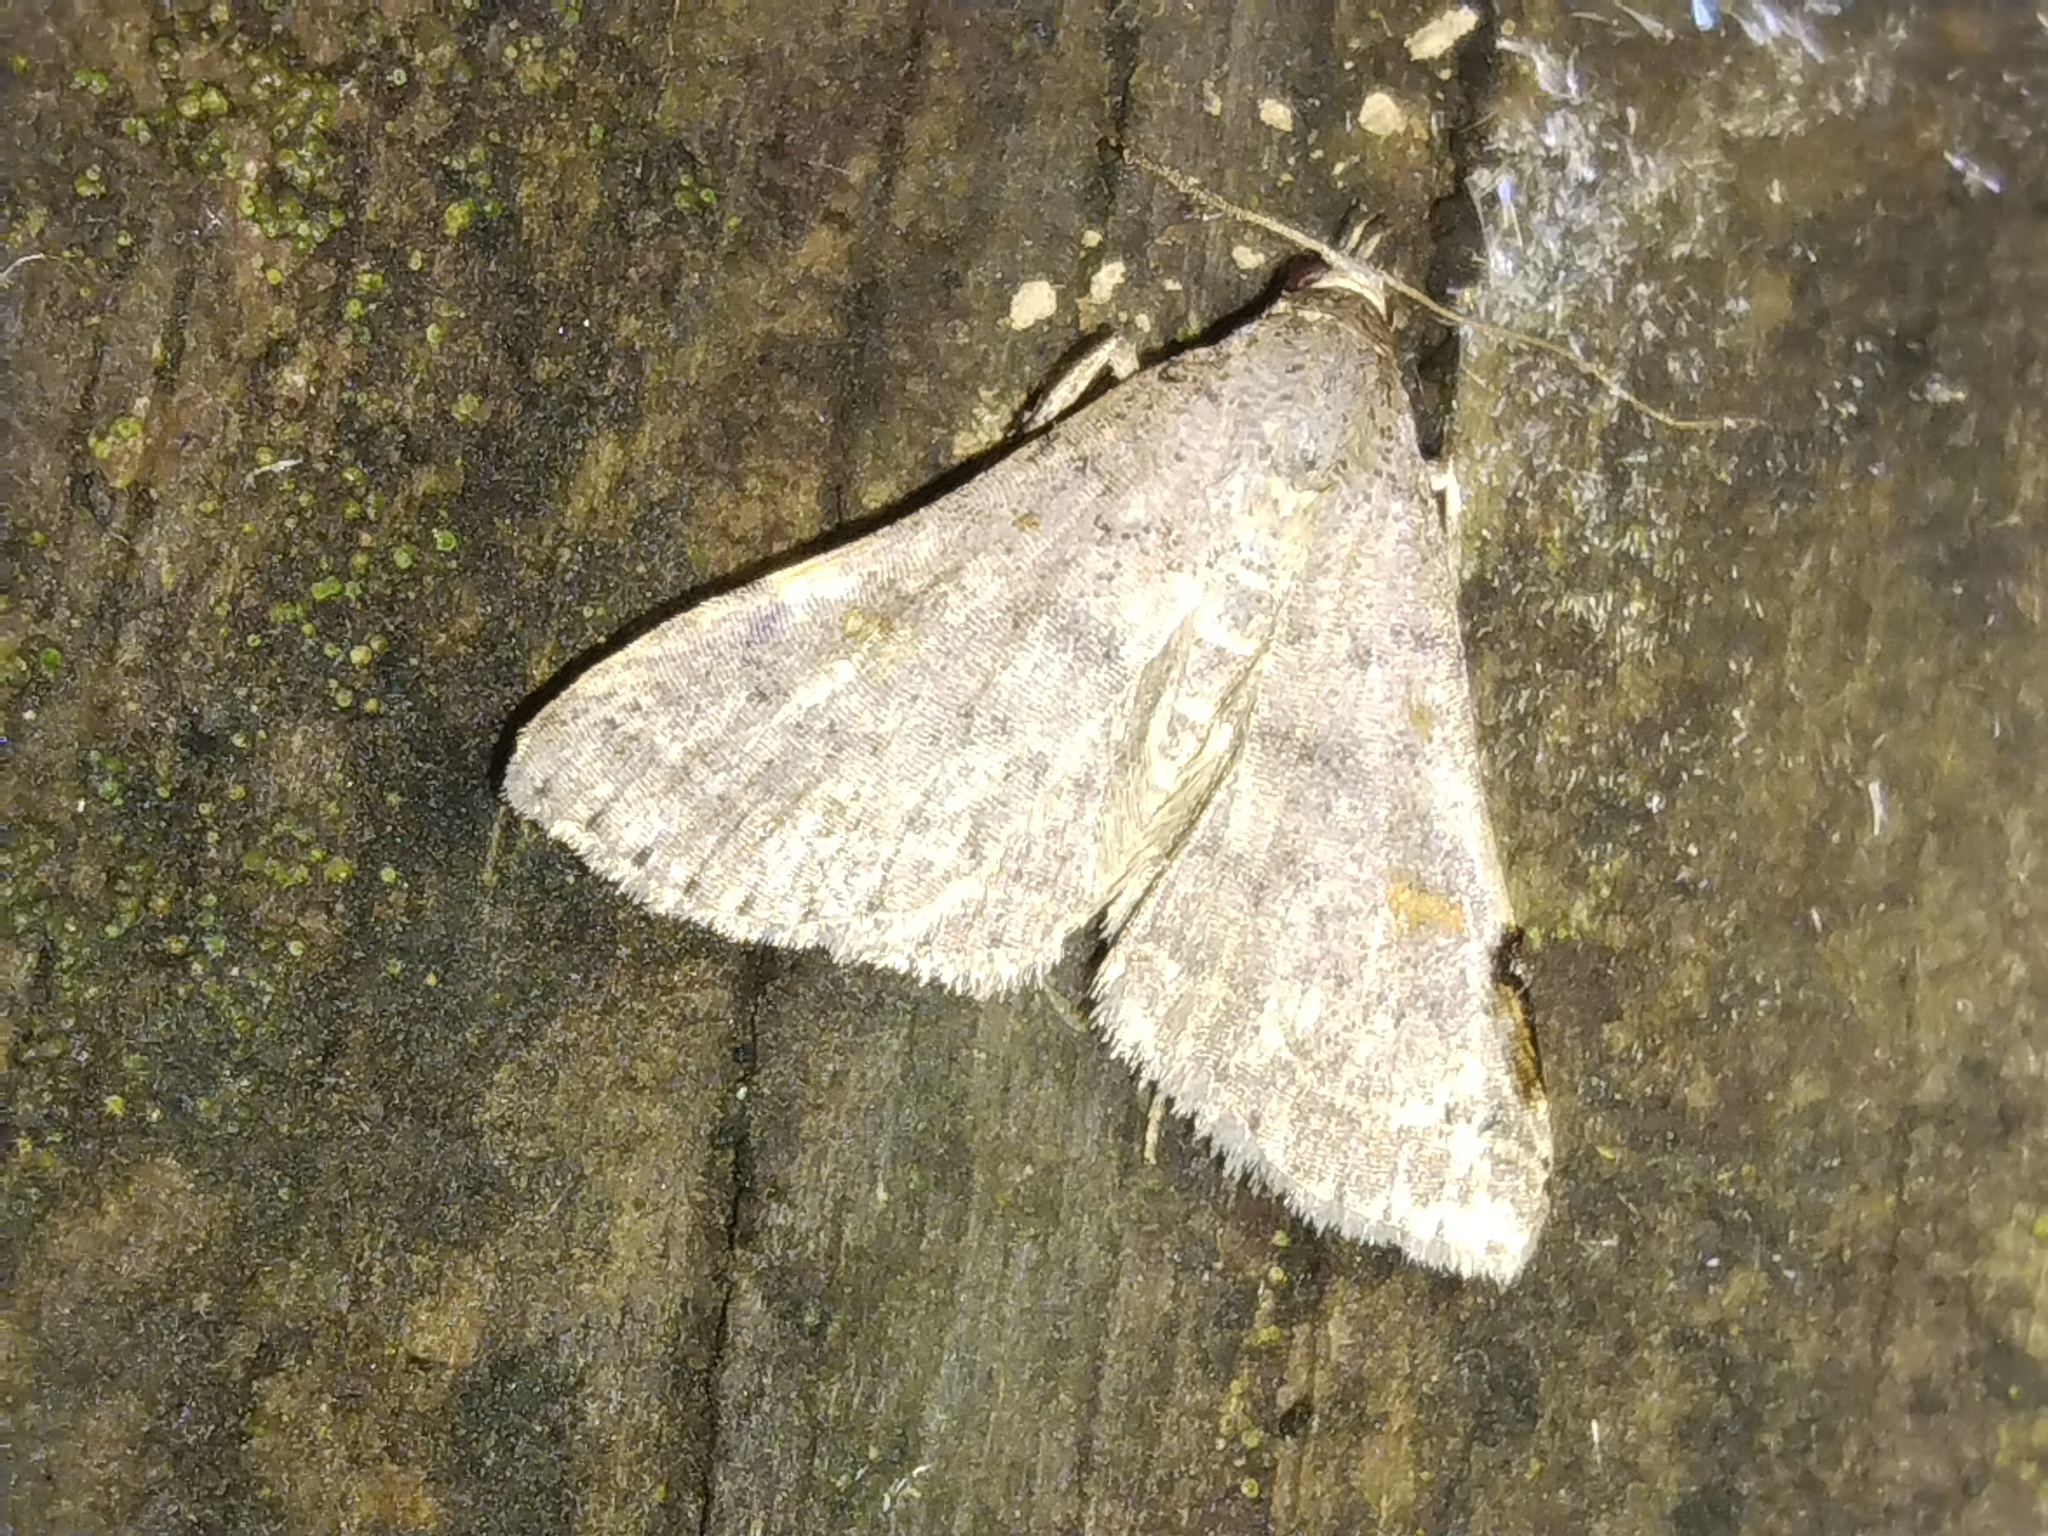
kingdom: Animalia
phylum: Arthropoda
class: Insecta
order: Lepidoptera
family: Erebidae
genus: Bleptina
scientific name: Bleptina caradrinalis
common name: Bent-winged owlet
